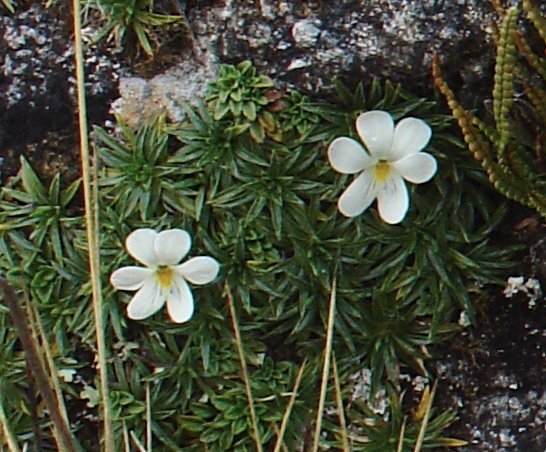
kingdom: Plantae
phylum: Tracheophyta
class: Magnoliopsida
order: Malpighiales
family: Violaceae
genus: Viola
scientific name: Viola pygmaea
